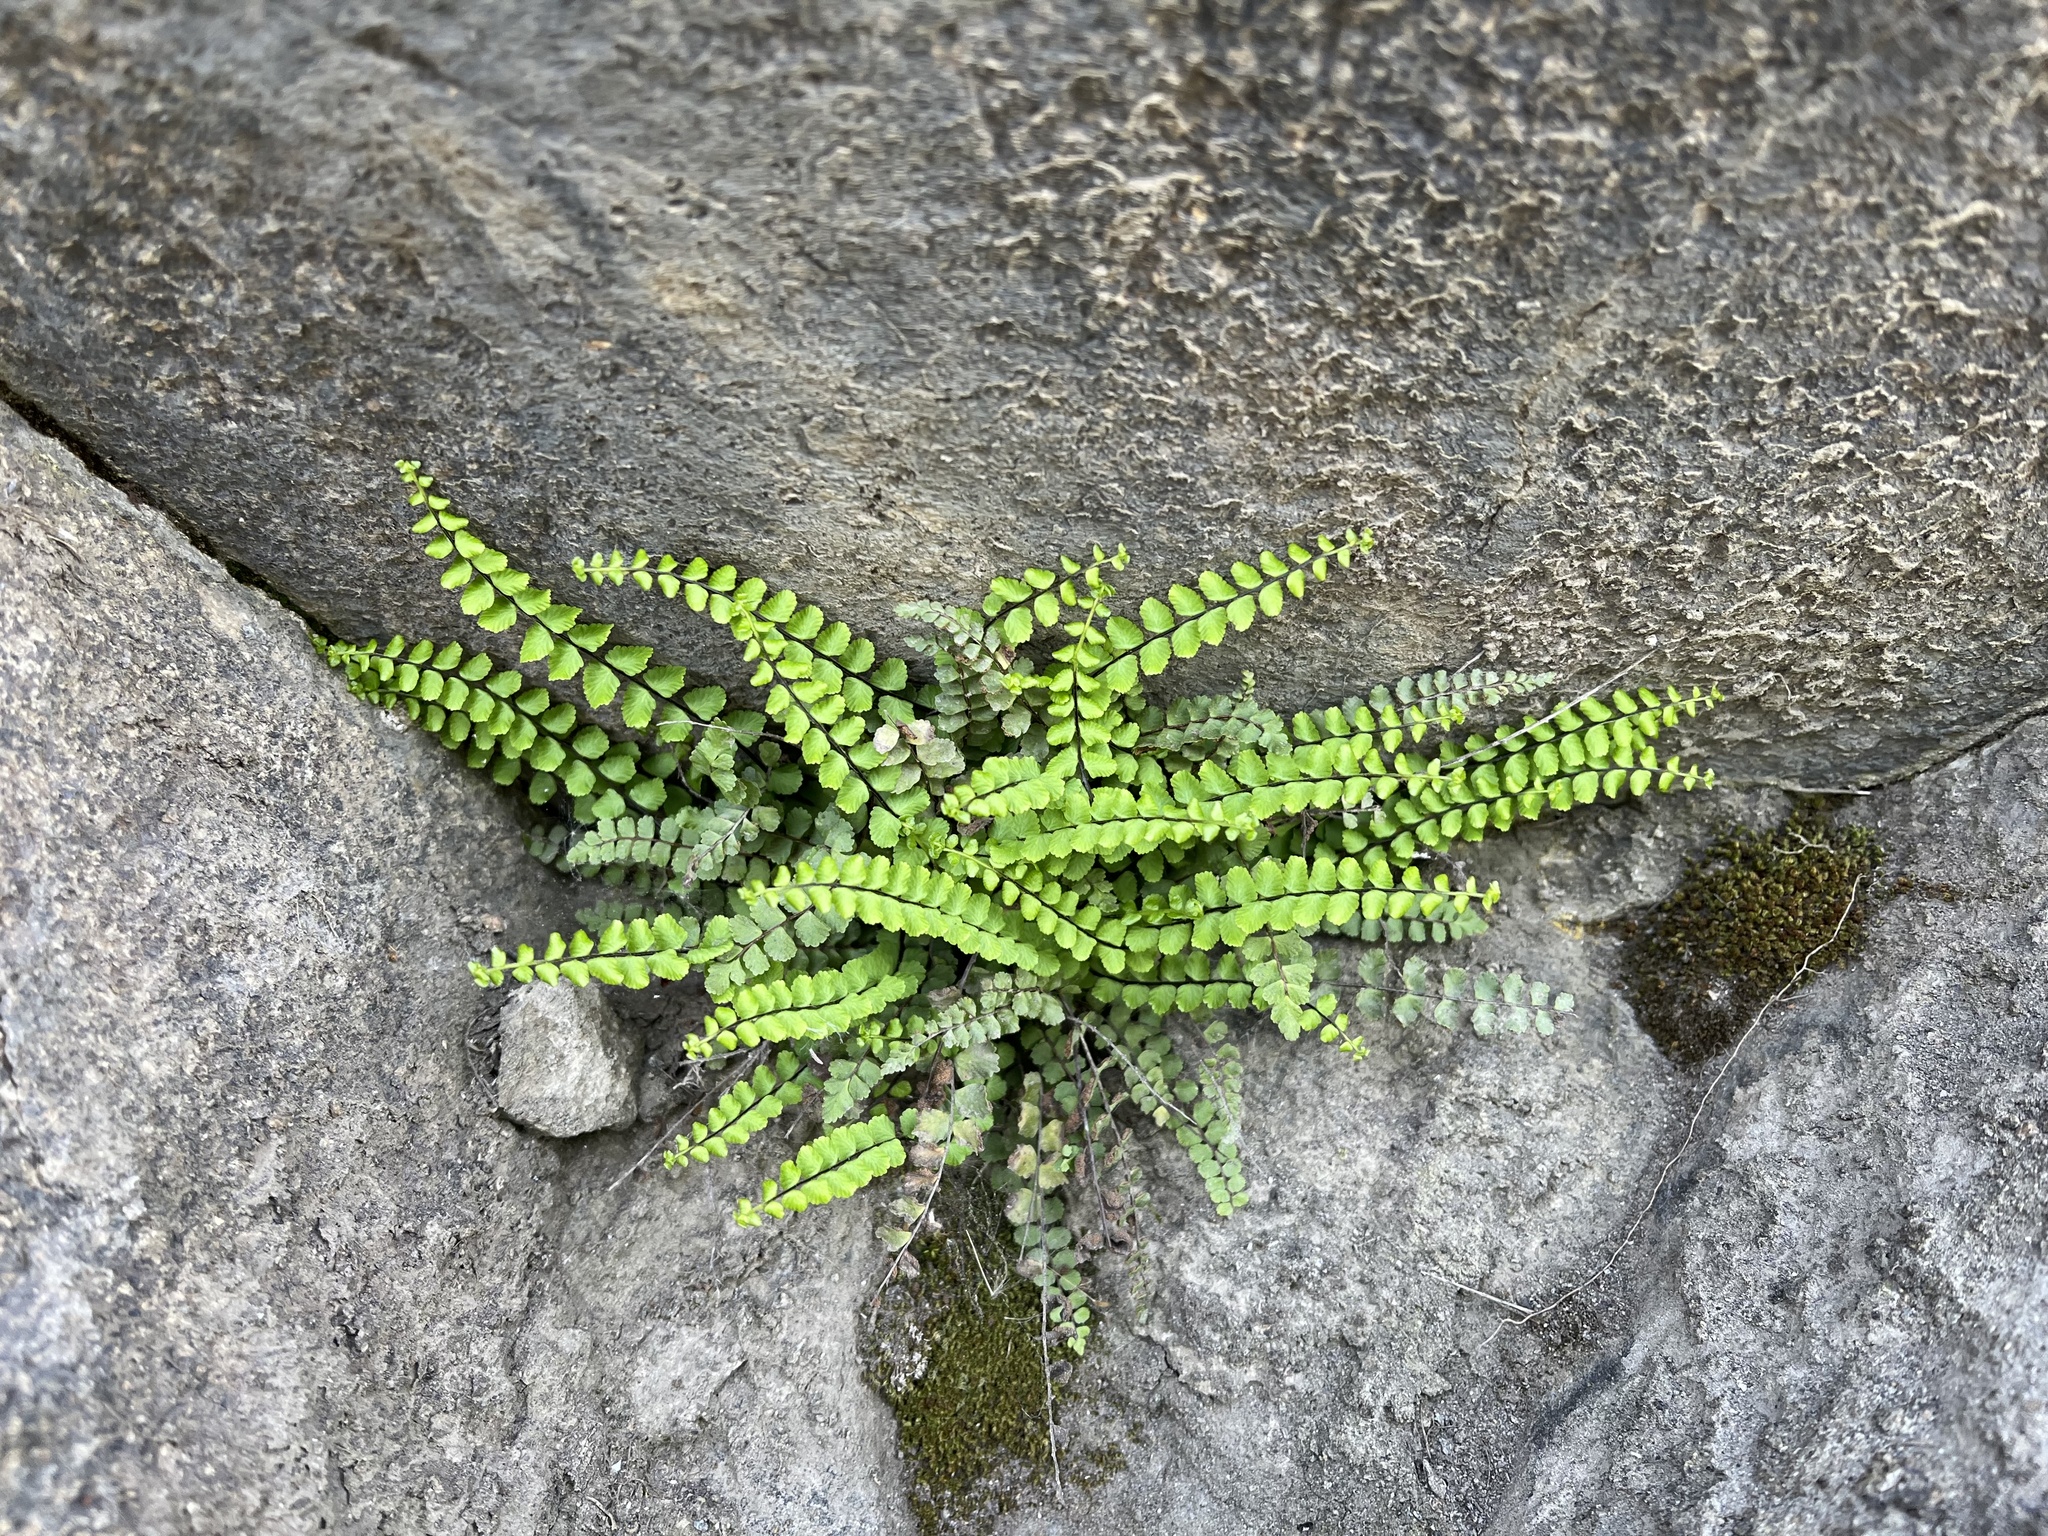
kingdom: Plantae
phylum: Tracheophyta
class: Polypodiopsida
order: Polypodiales
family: Aspleniaceae
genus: Asplenium
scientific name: Asplenium trichomanes
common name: Maidenhair spleenwort
